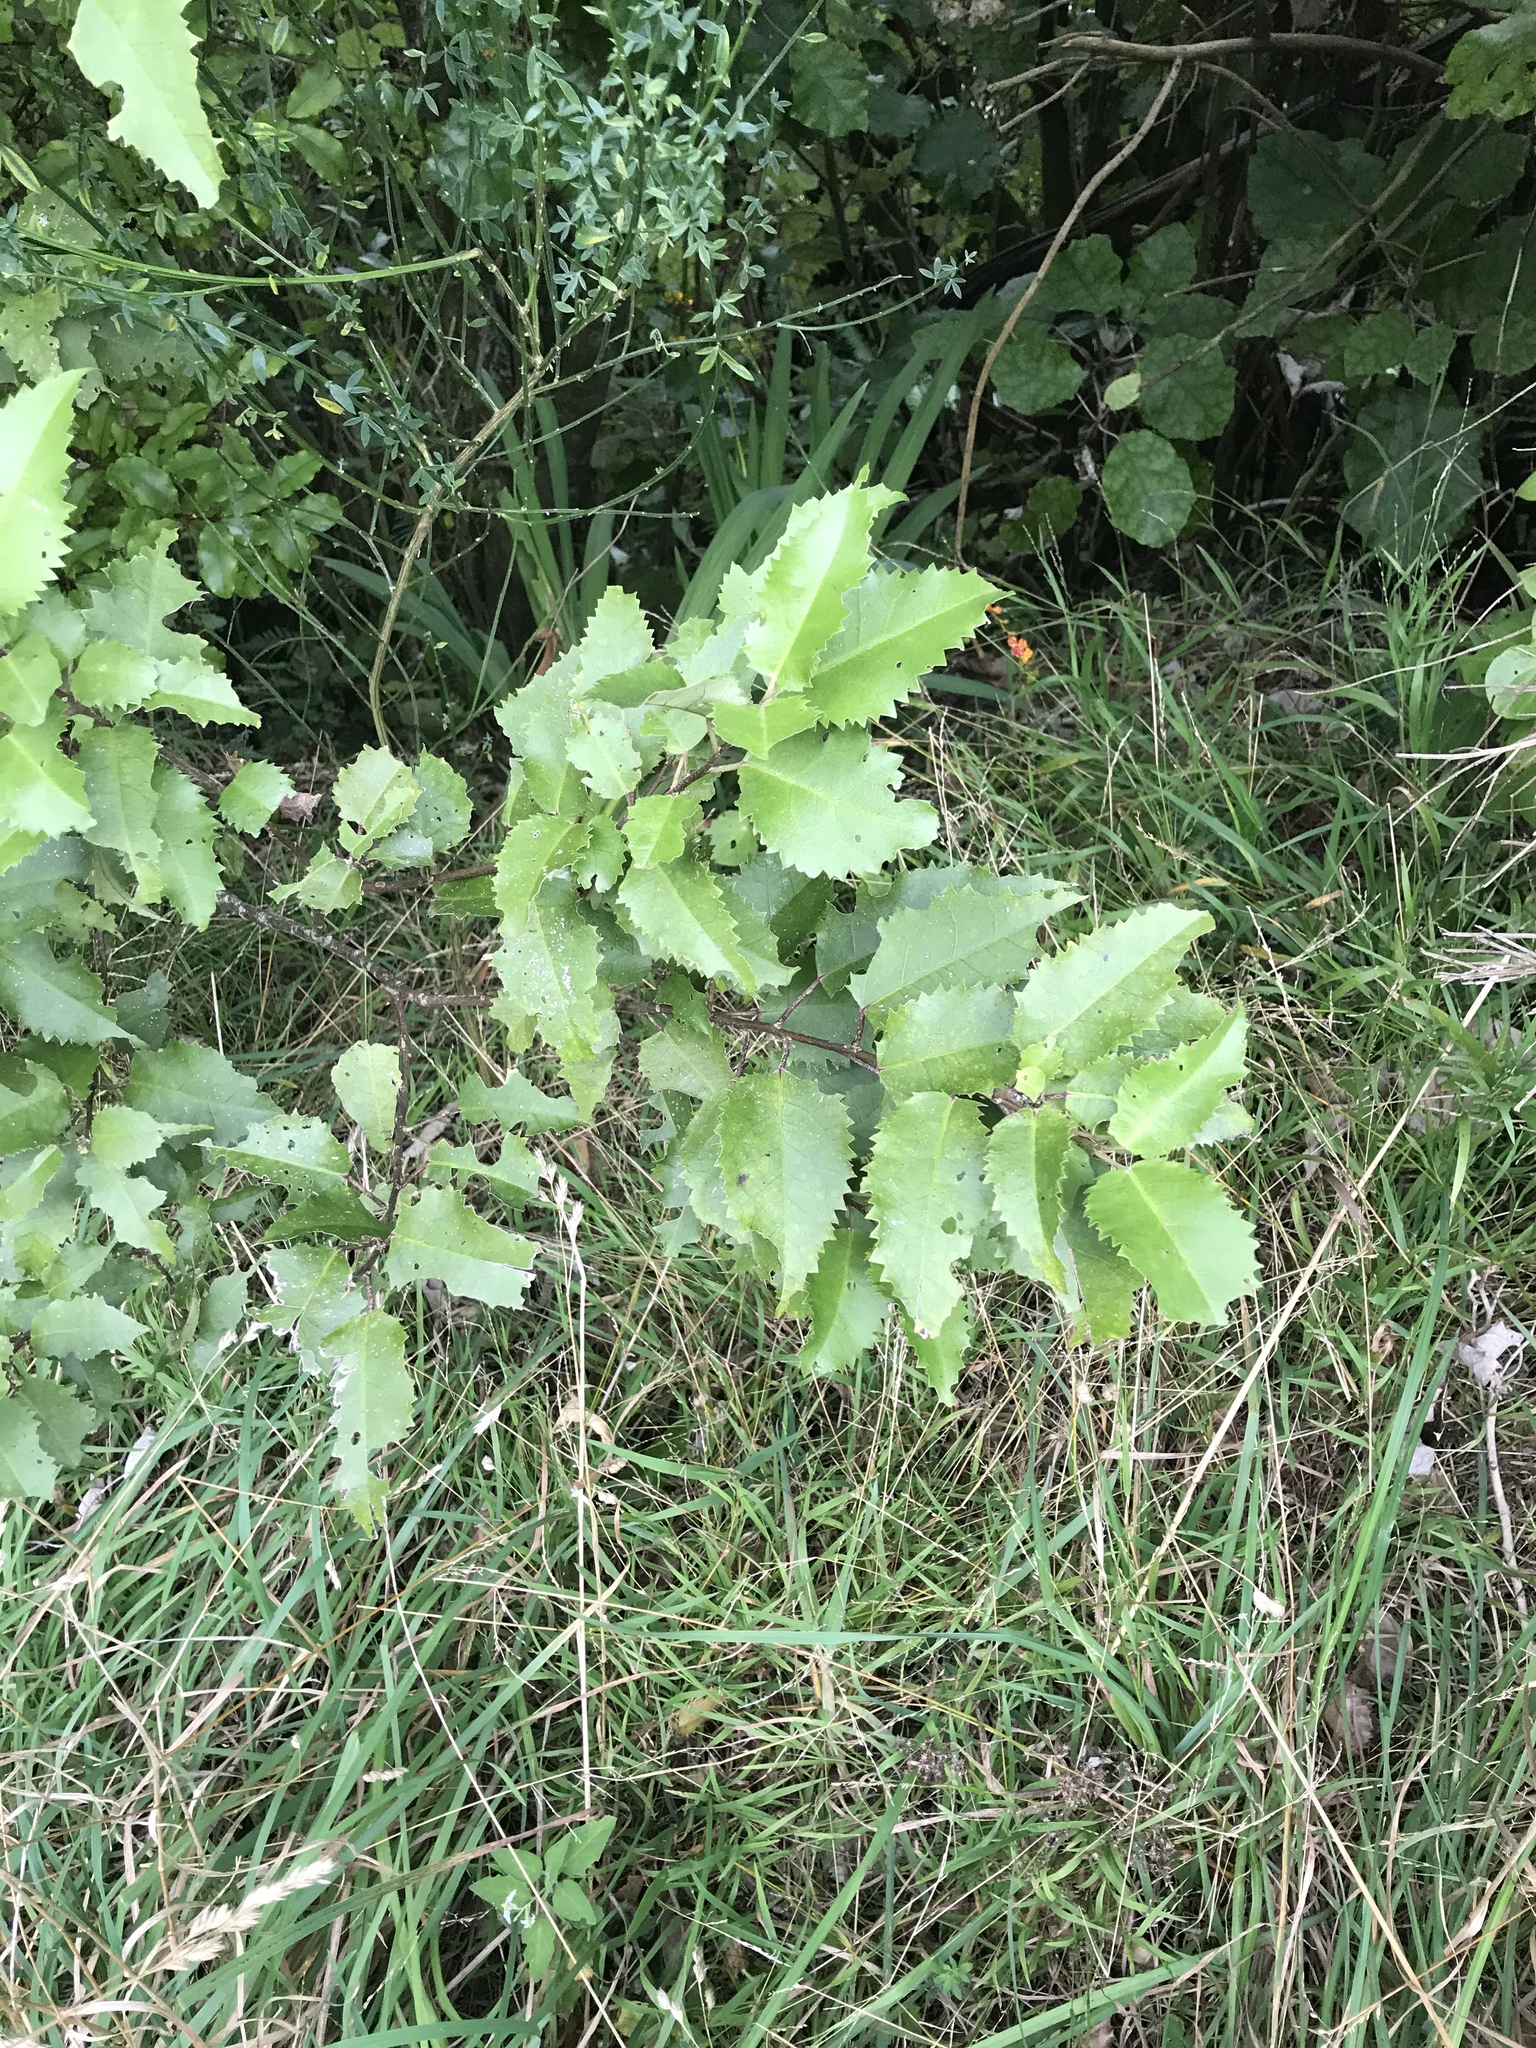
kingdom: Plantae
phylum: Tracheophyta
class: Magnoliopsida
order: Malvales
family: Malvaceae
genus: Hoheria
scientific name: Hoheria populnea
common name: Lacebark
